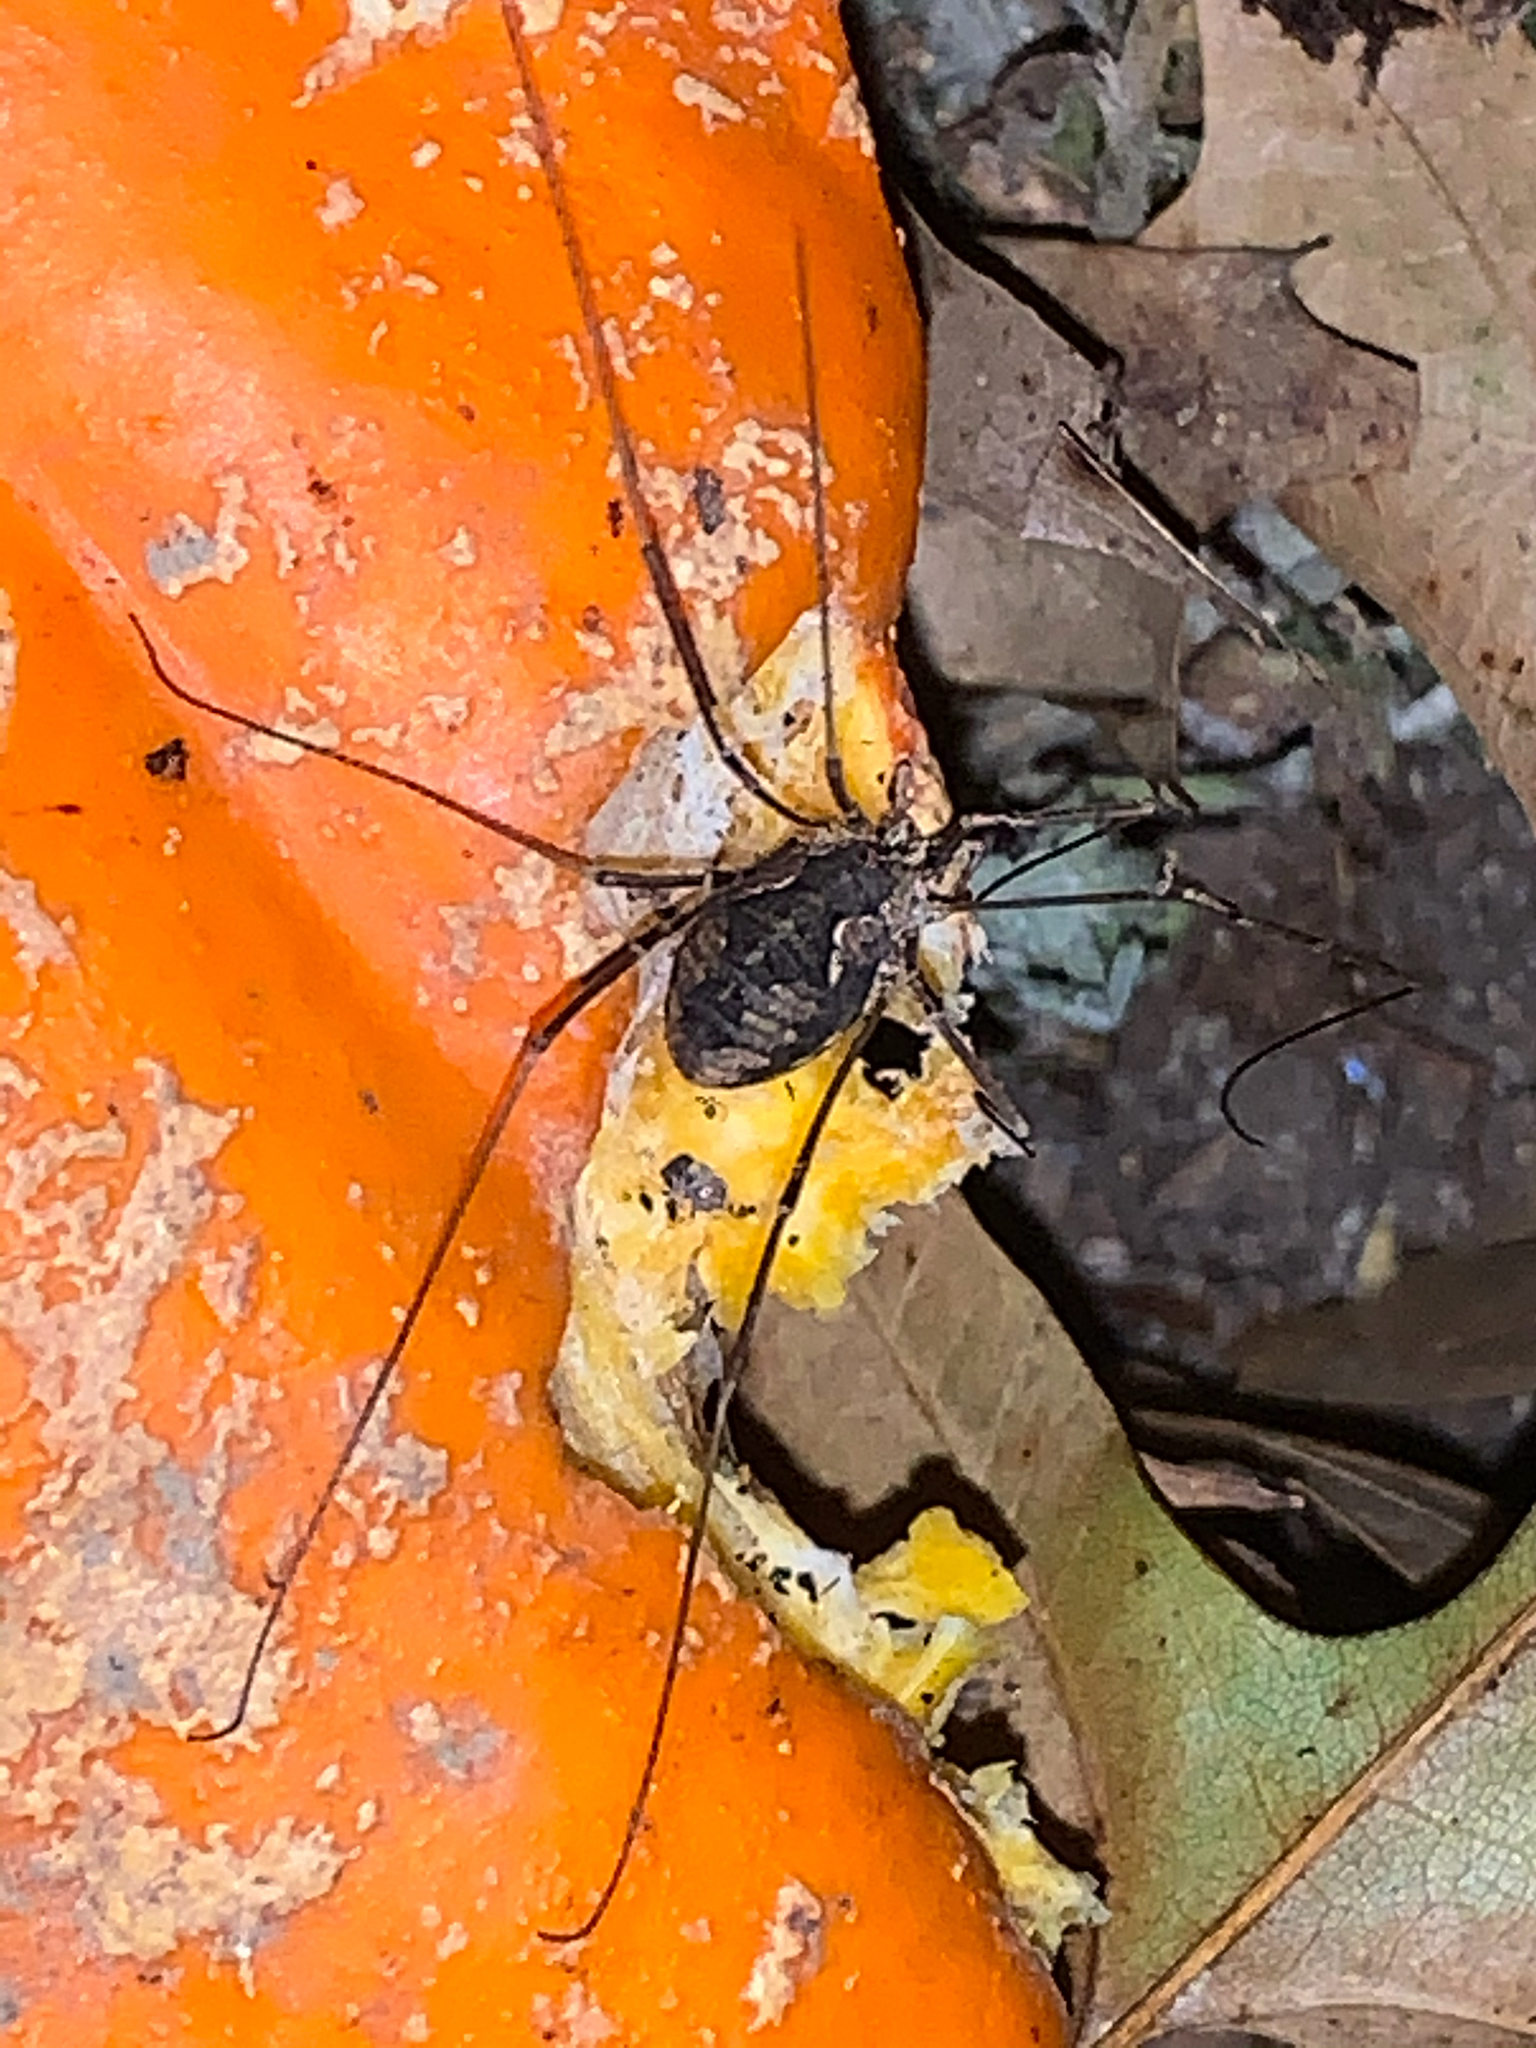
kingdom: Animalia
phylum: Arthropoda
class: Arachnida
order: Opiliones
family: Phalangiidae
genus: Phalangium
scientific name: Phalangium opilio
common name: Daddy longleg
